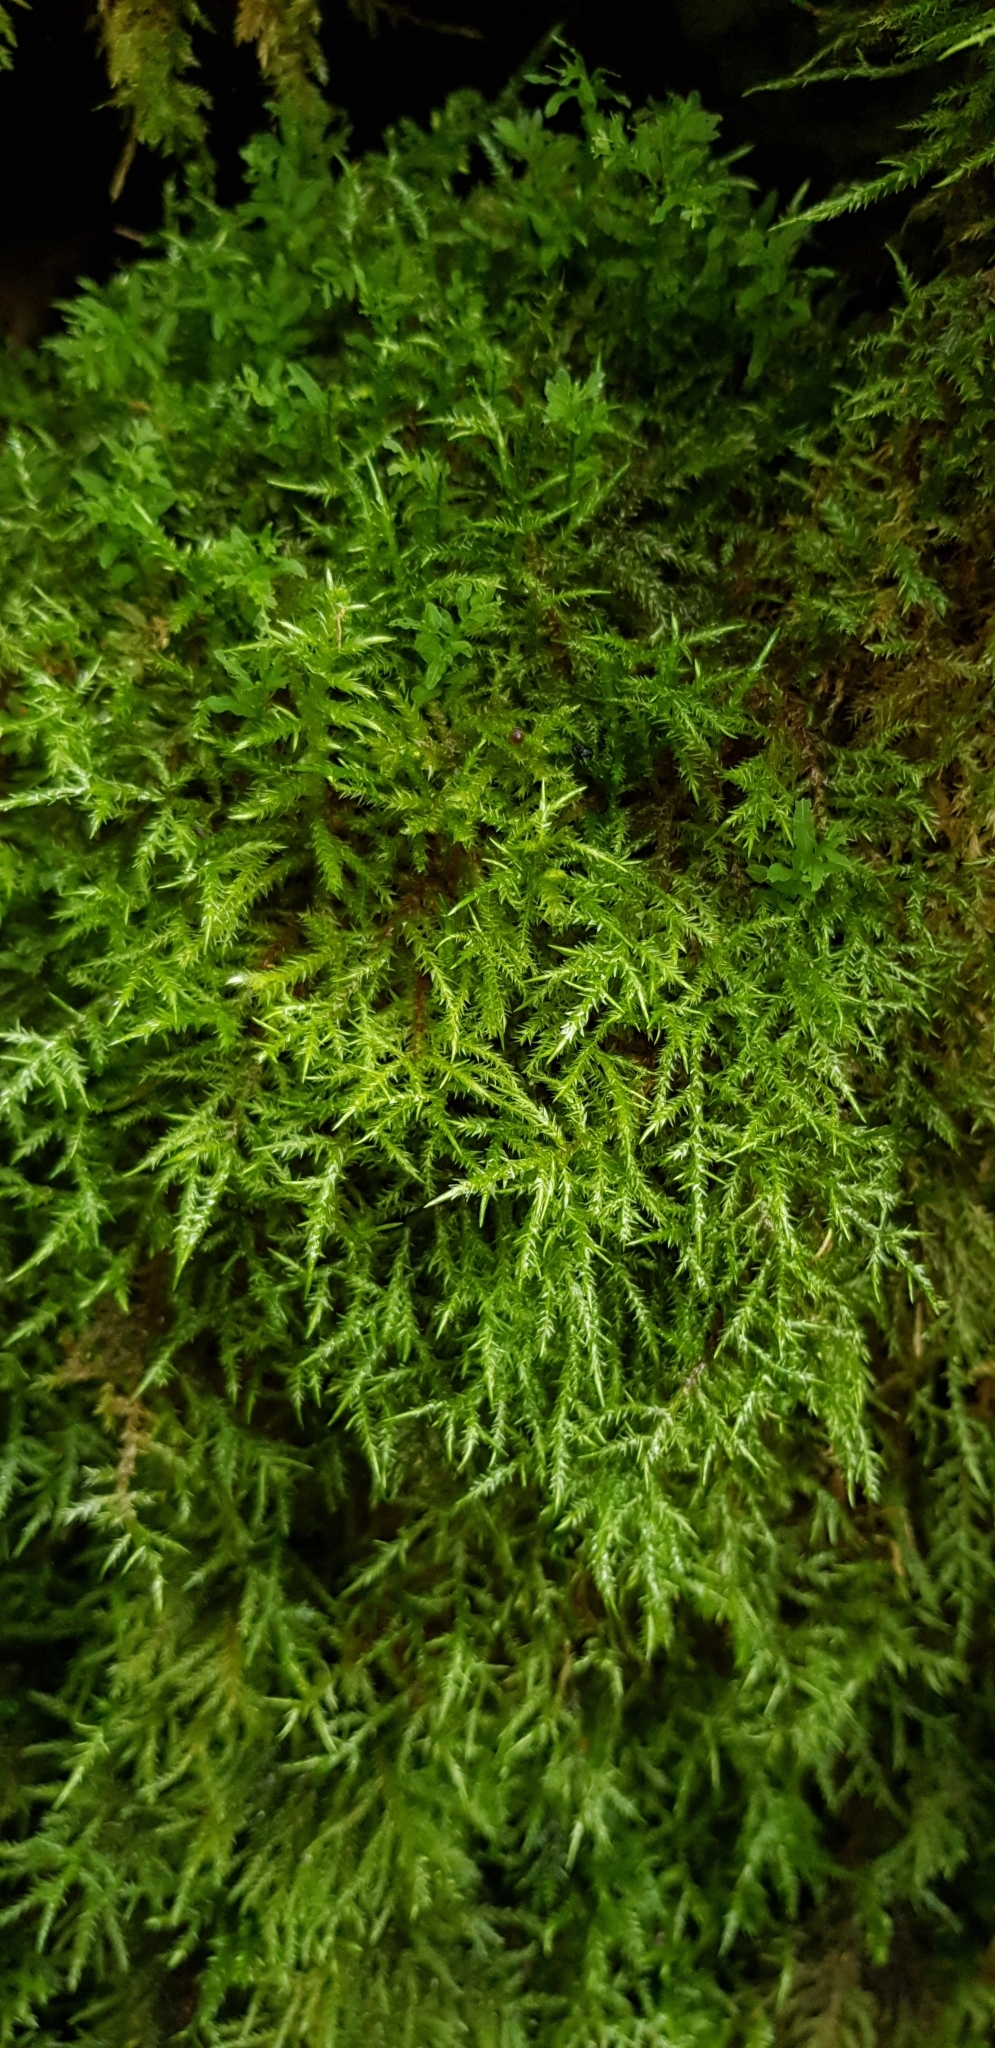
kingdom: Plantae
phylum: Bryophyta
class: Bryopsida
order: Hypnales
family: Pylaisiaceae
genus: Calliergonella
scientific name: Calliergonella cuspidata
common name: Common large wetland moss
